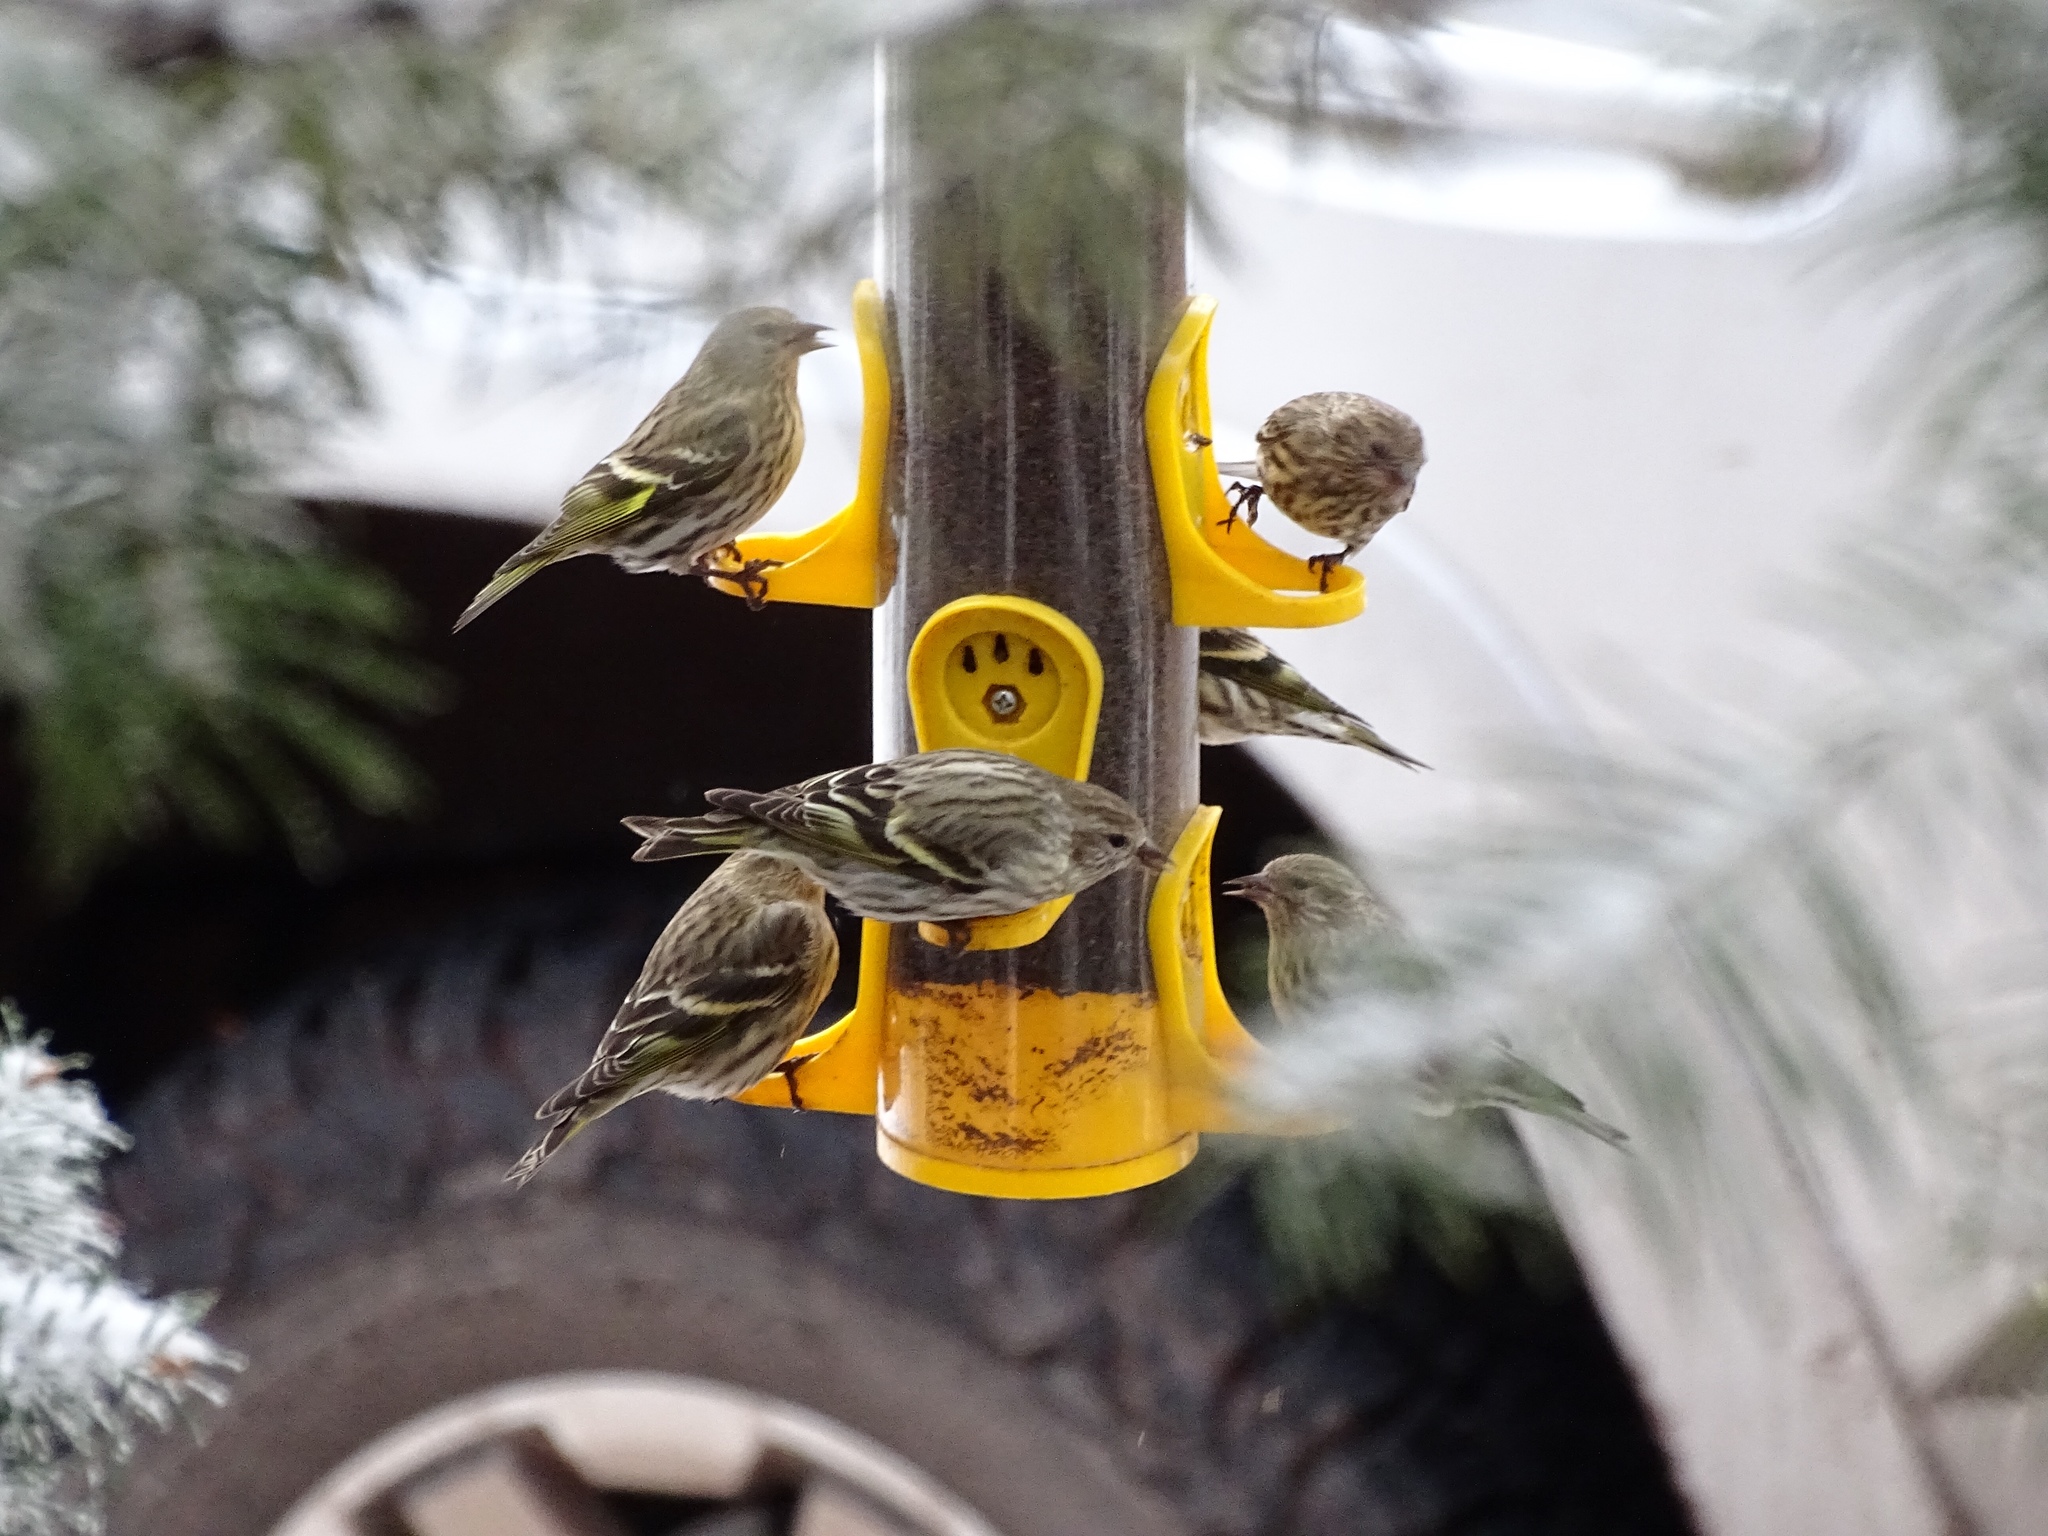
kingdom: Animalia
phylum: Chordata
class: Aves
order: Passeriformes
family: Fringillidae
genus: Spinus
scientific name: Spinus pinus
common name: Pine siskin
